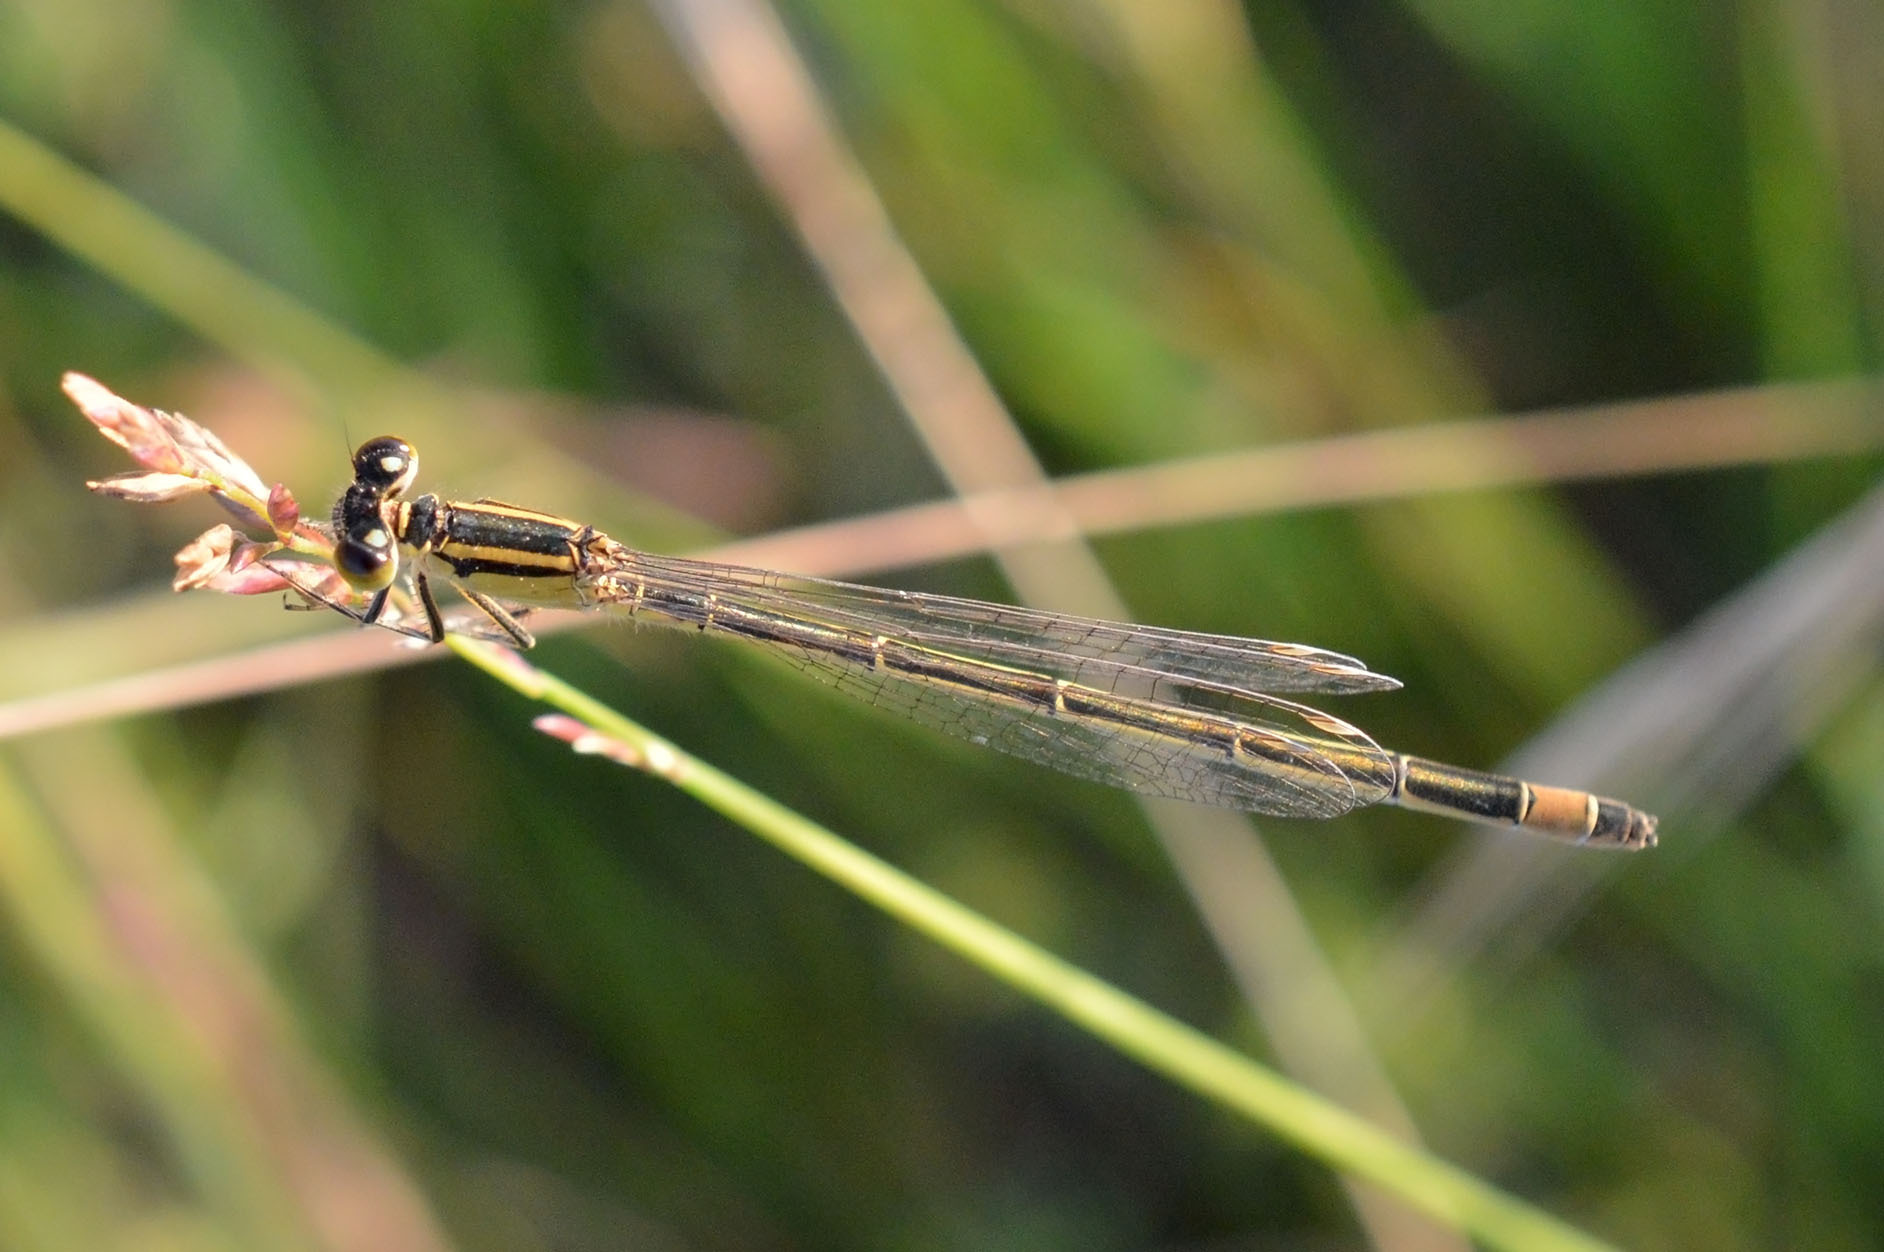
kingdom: Animalia
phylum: Arthropoda
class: Insecta
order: Odonata
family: Coenagrionidae
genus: Ischnura
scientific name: Ischnura elegans
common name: Blue-tailed damselfly
